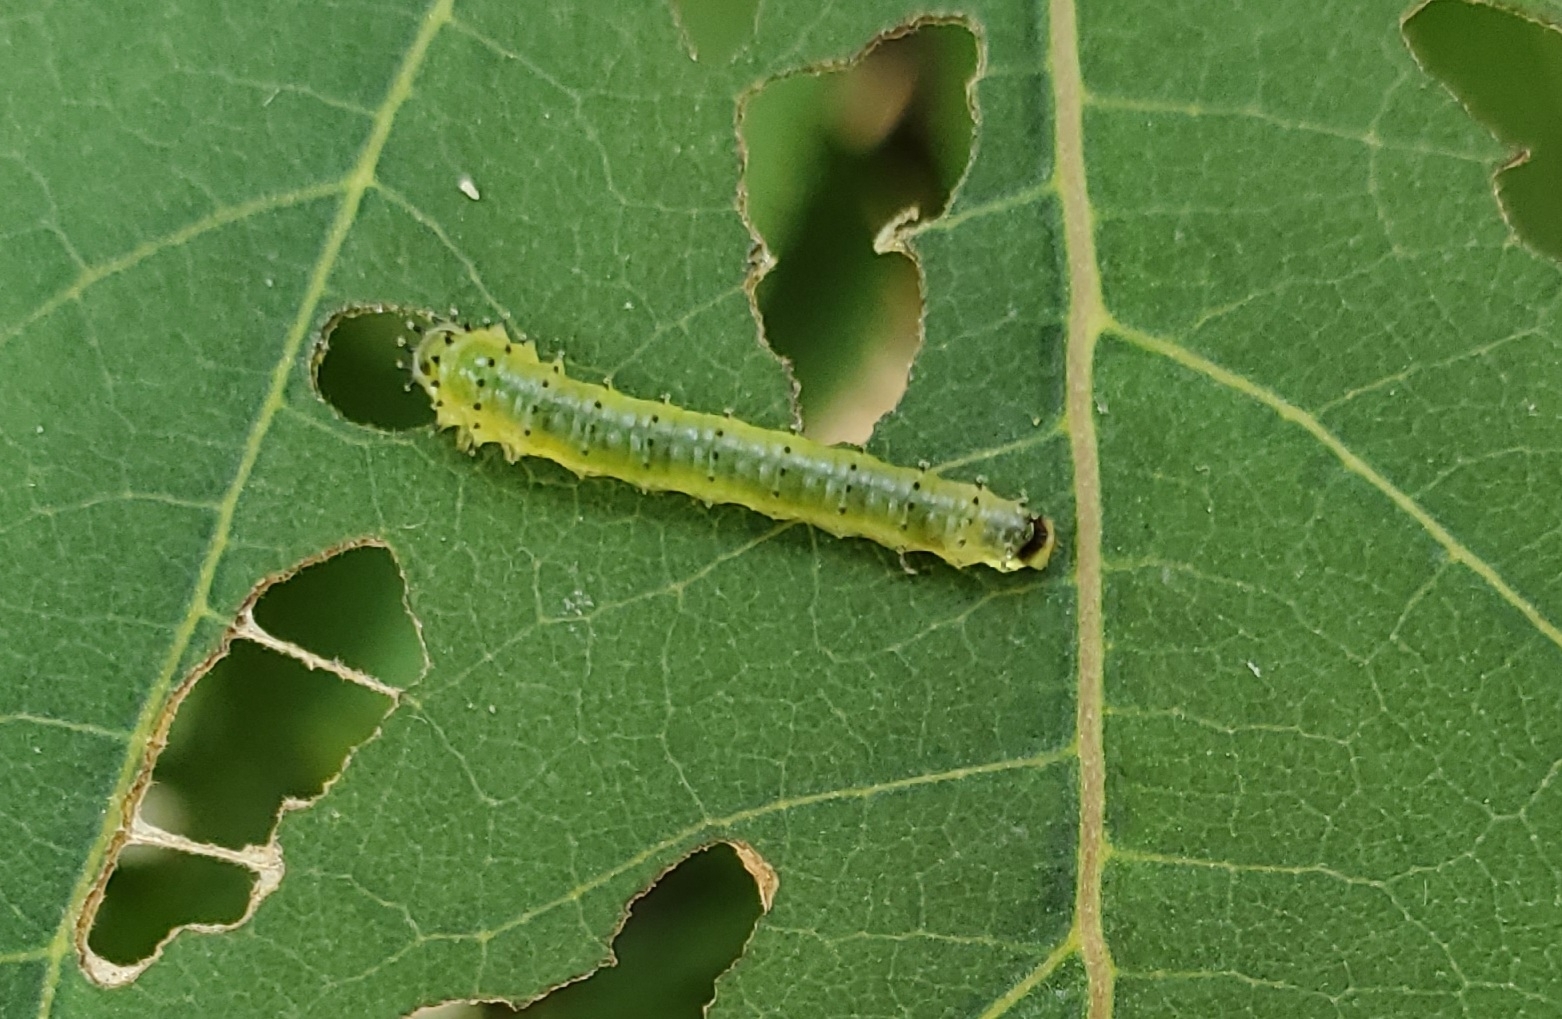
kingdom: Animalia
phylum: Arthropoda
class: Insecta
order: Hymenoptera
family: Argidae
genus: Atomacera
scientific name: Atomacera
